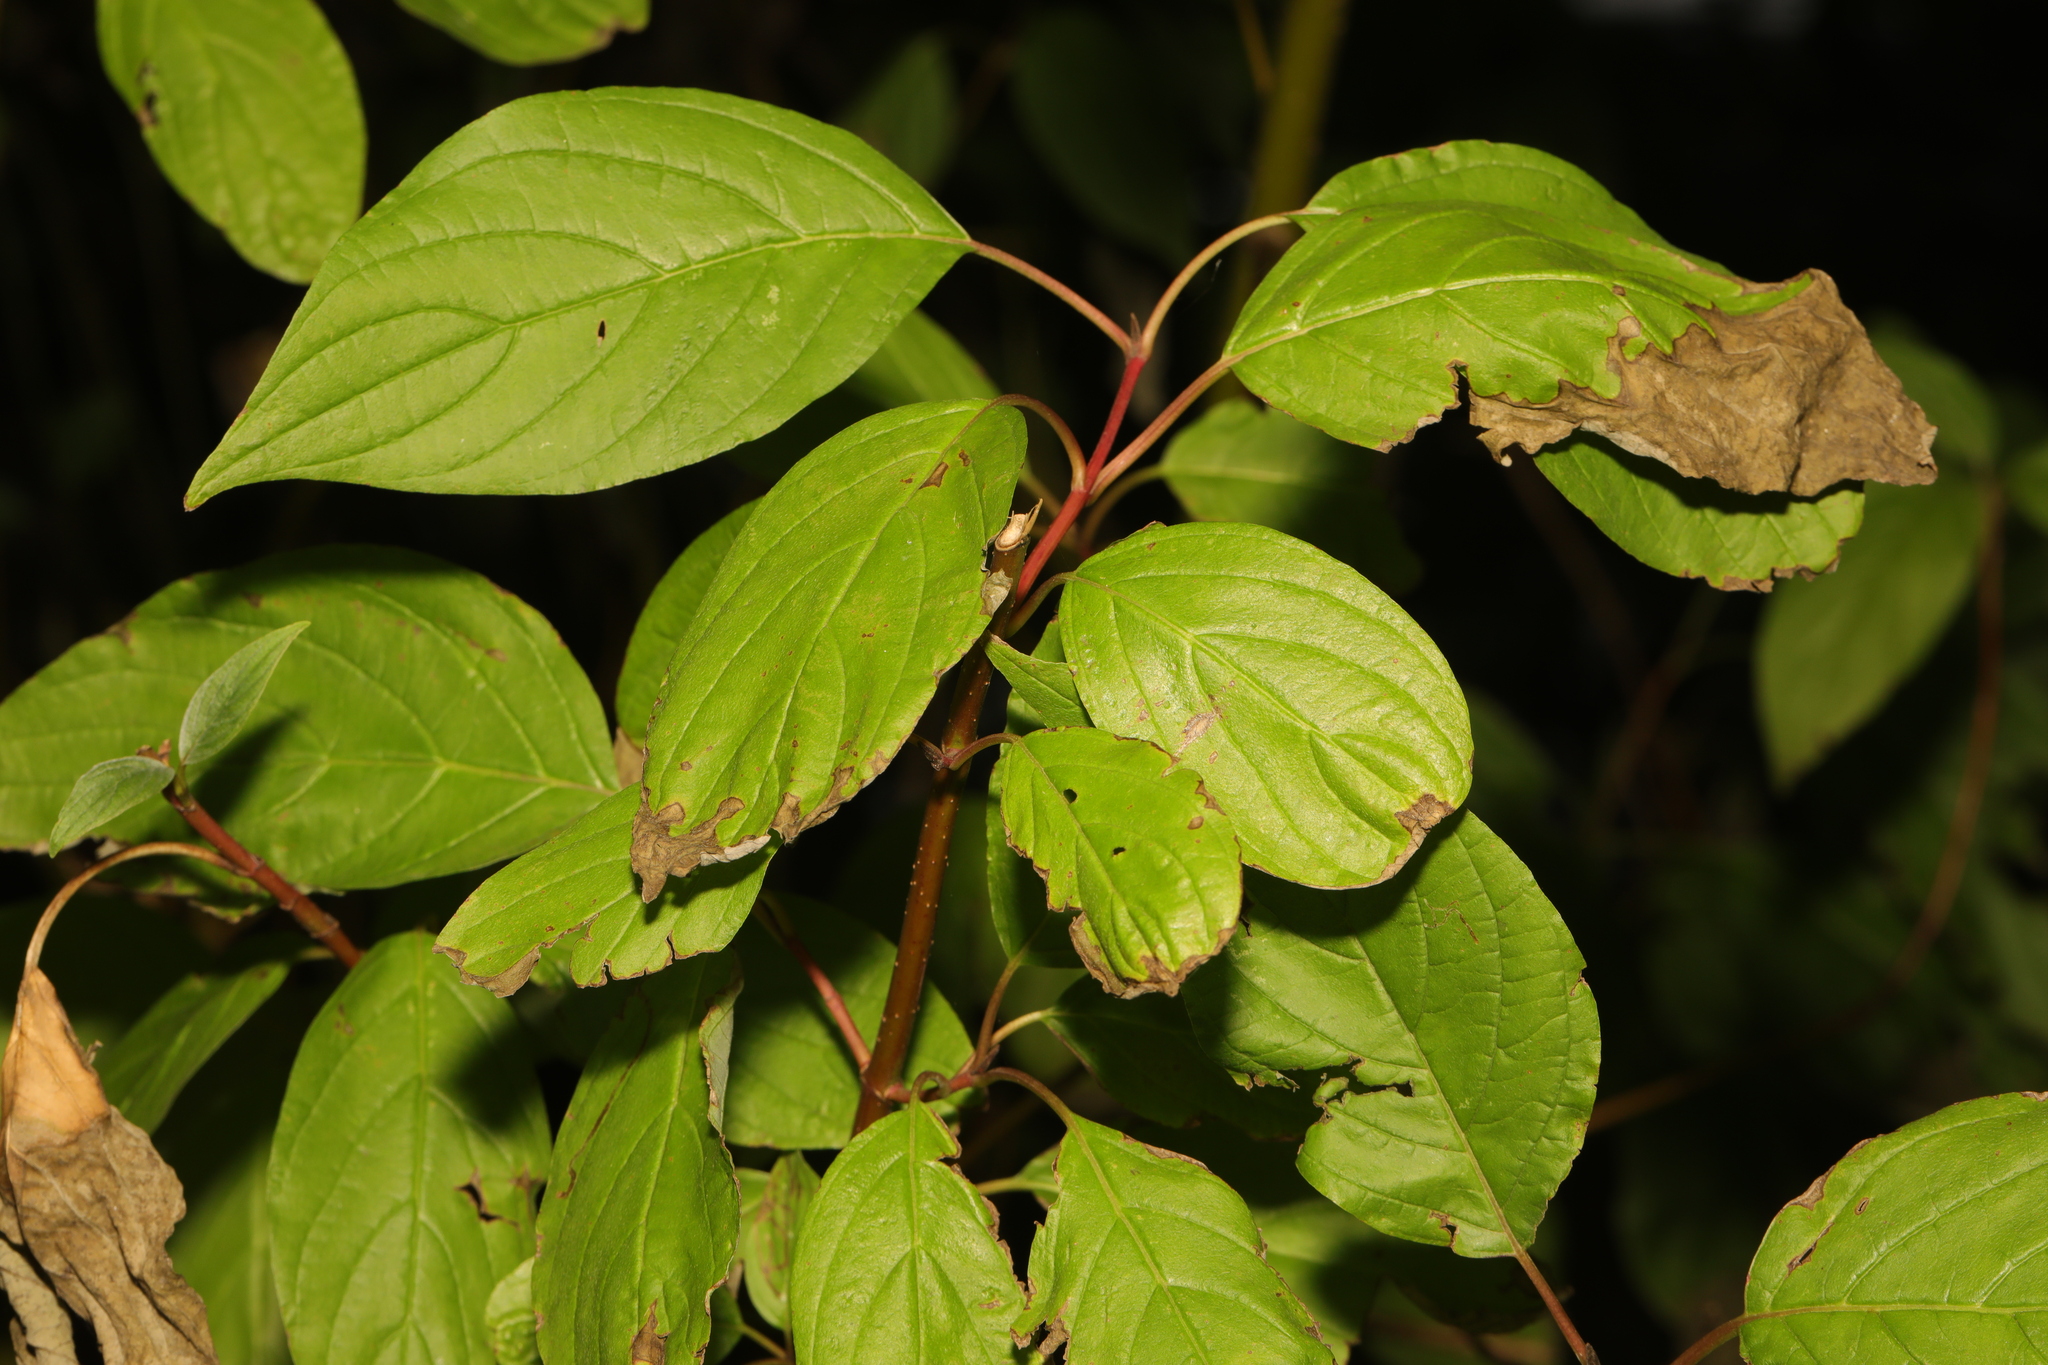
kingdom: Plantae
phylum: Tracheophyta
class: Magnoliopsida
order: Cornales
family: Cornaceae
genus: Cornus
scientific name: Cornus alba
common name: White dogwood
